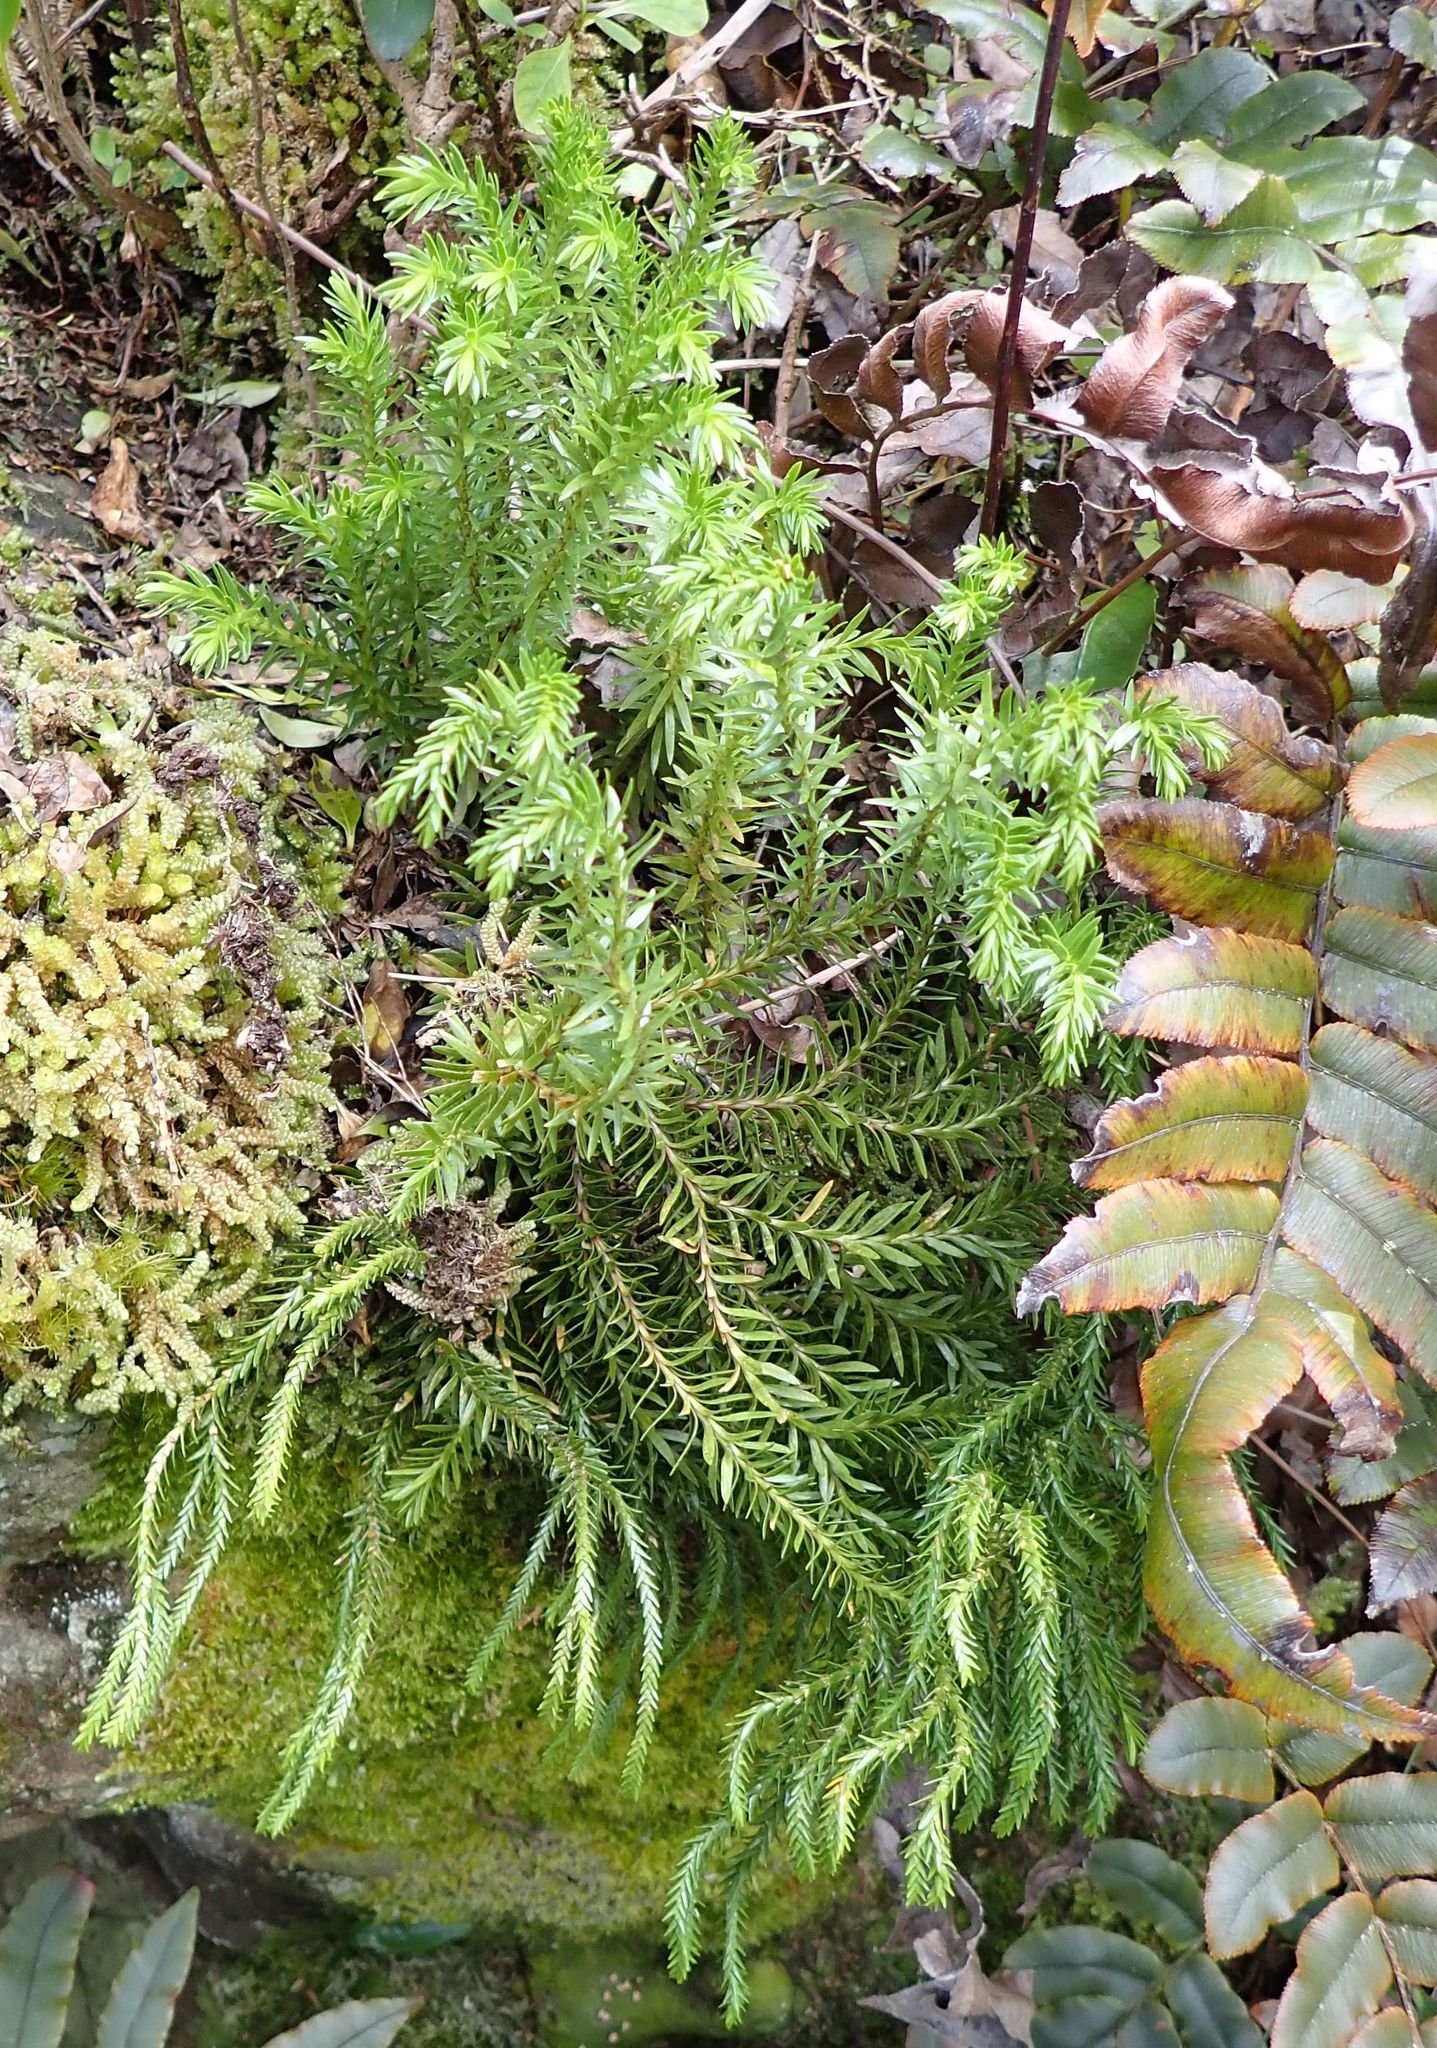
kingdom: Plantae
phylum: Tracheophyta
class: Lycopodiopsida
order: Lycopodiales
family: Lycopodiaceae
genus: Phlegmariurus
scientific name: Phlegmariurus varius
